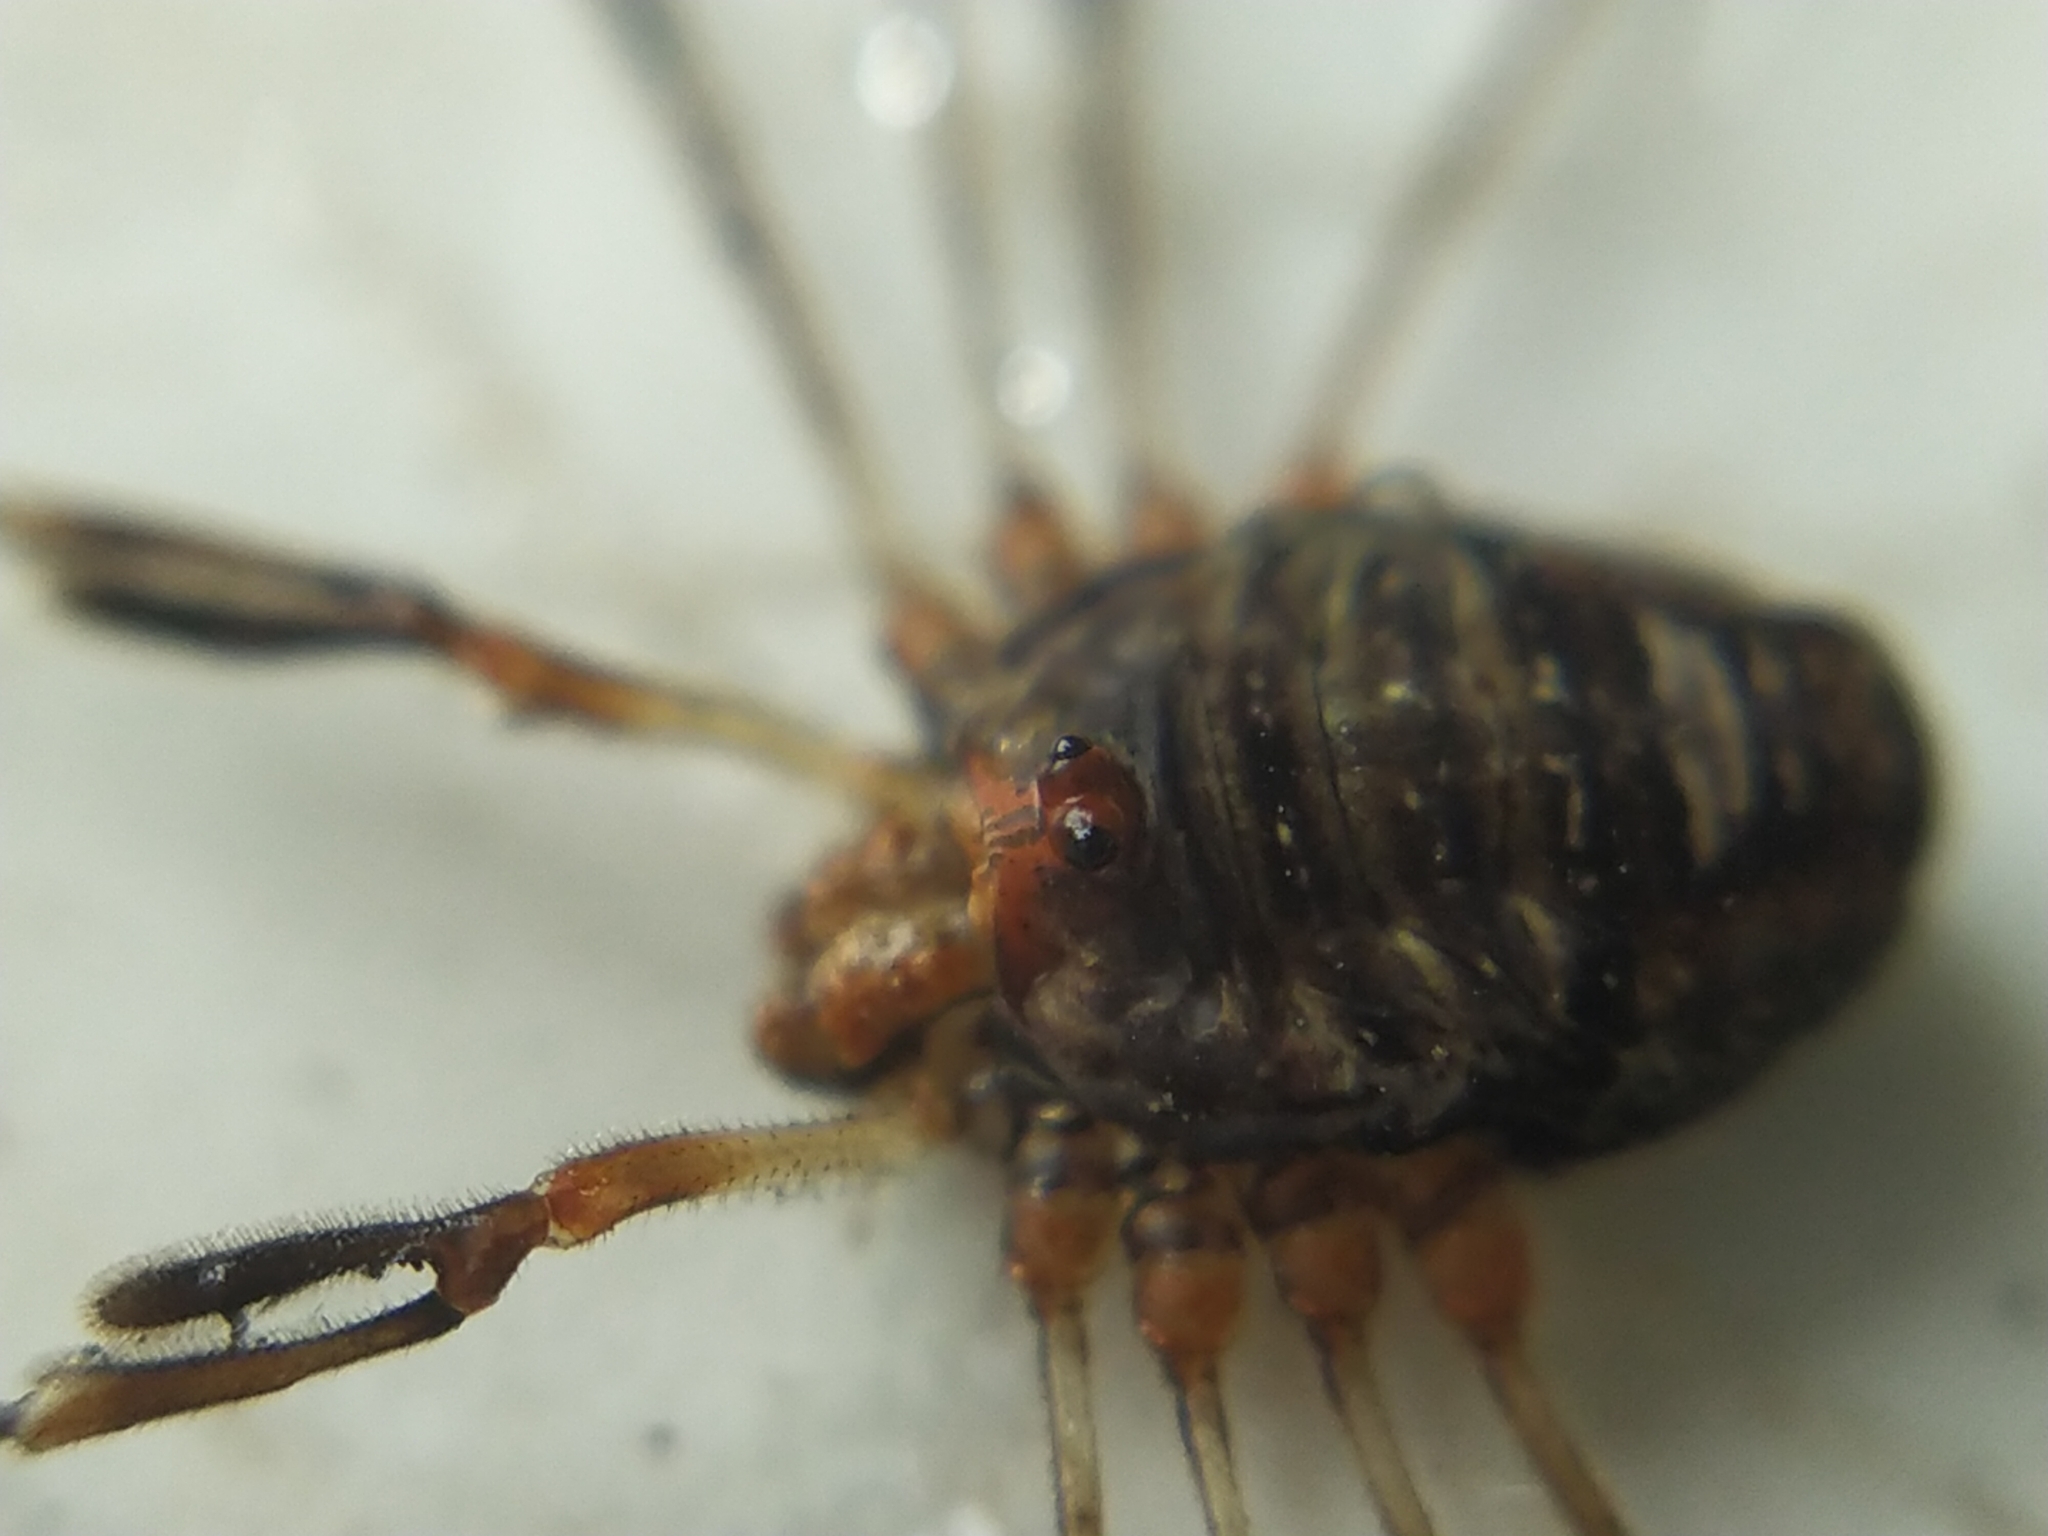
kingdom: Animalia
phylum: Arthropoda
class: Arachnida
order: Opiliones
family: Phalangiidae
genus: Dicranopalpus
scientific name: Dicranopalpus ramosus
